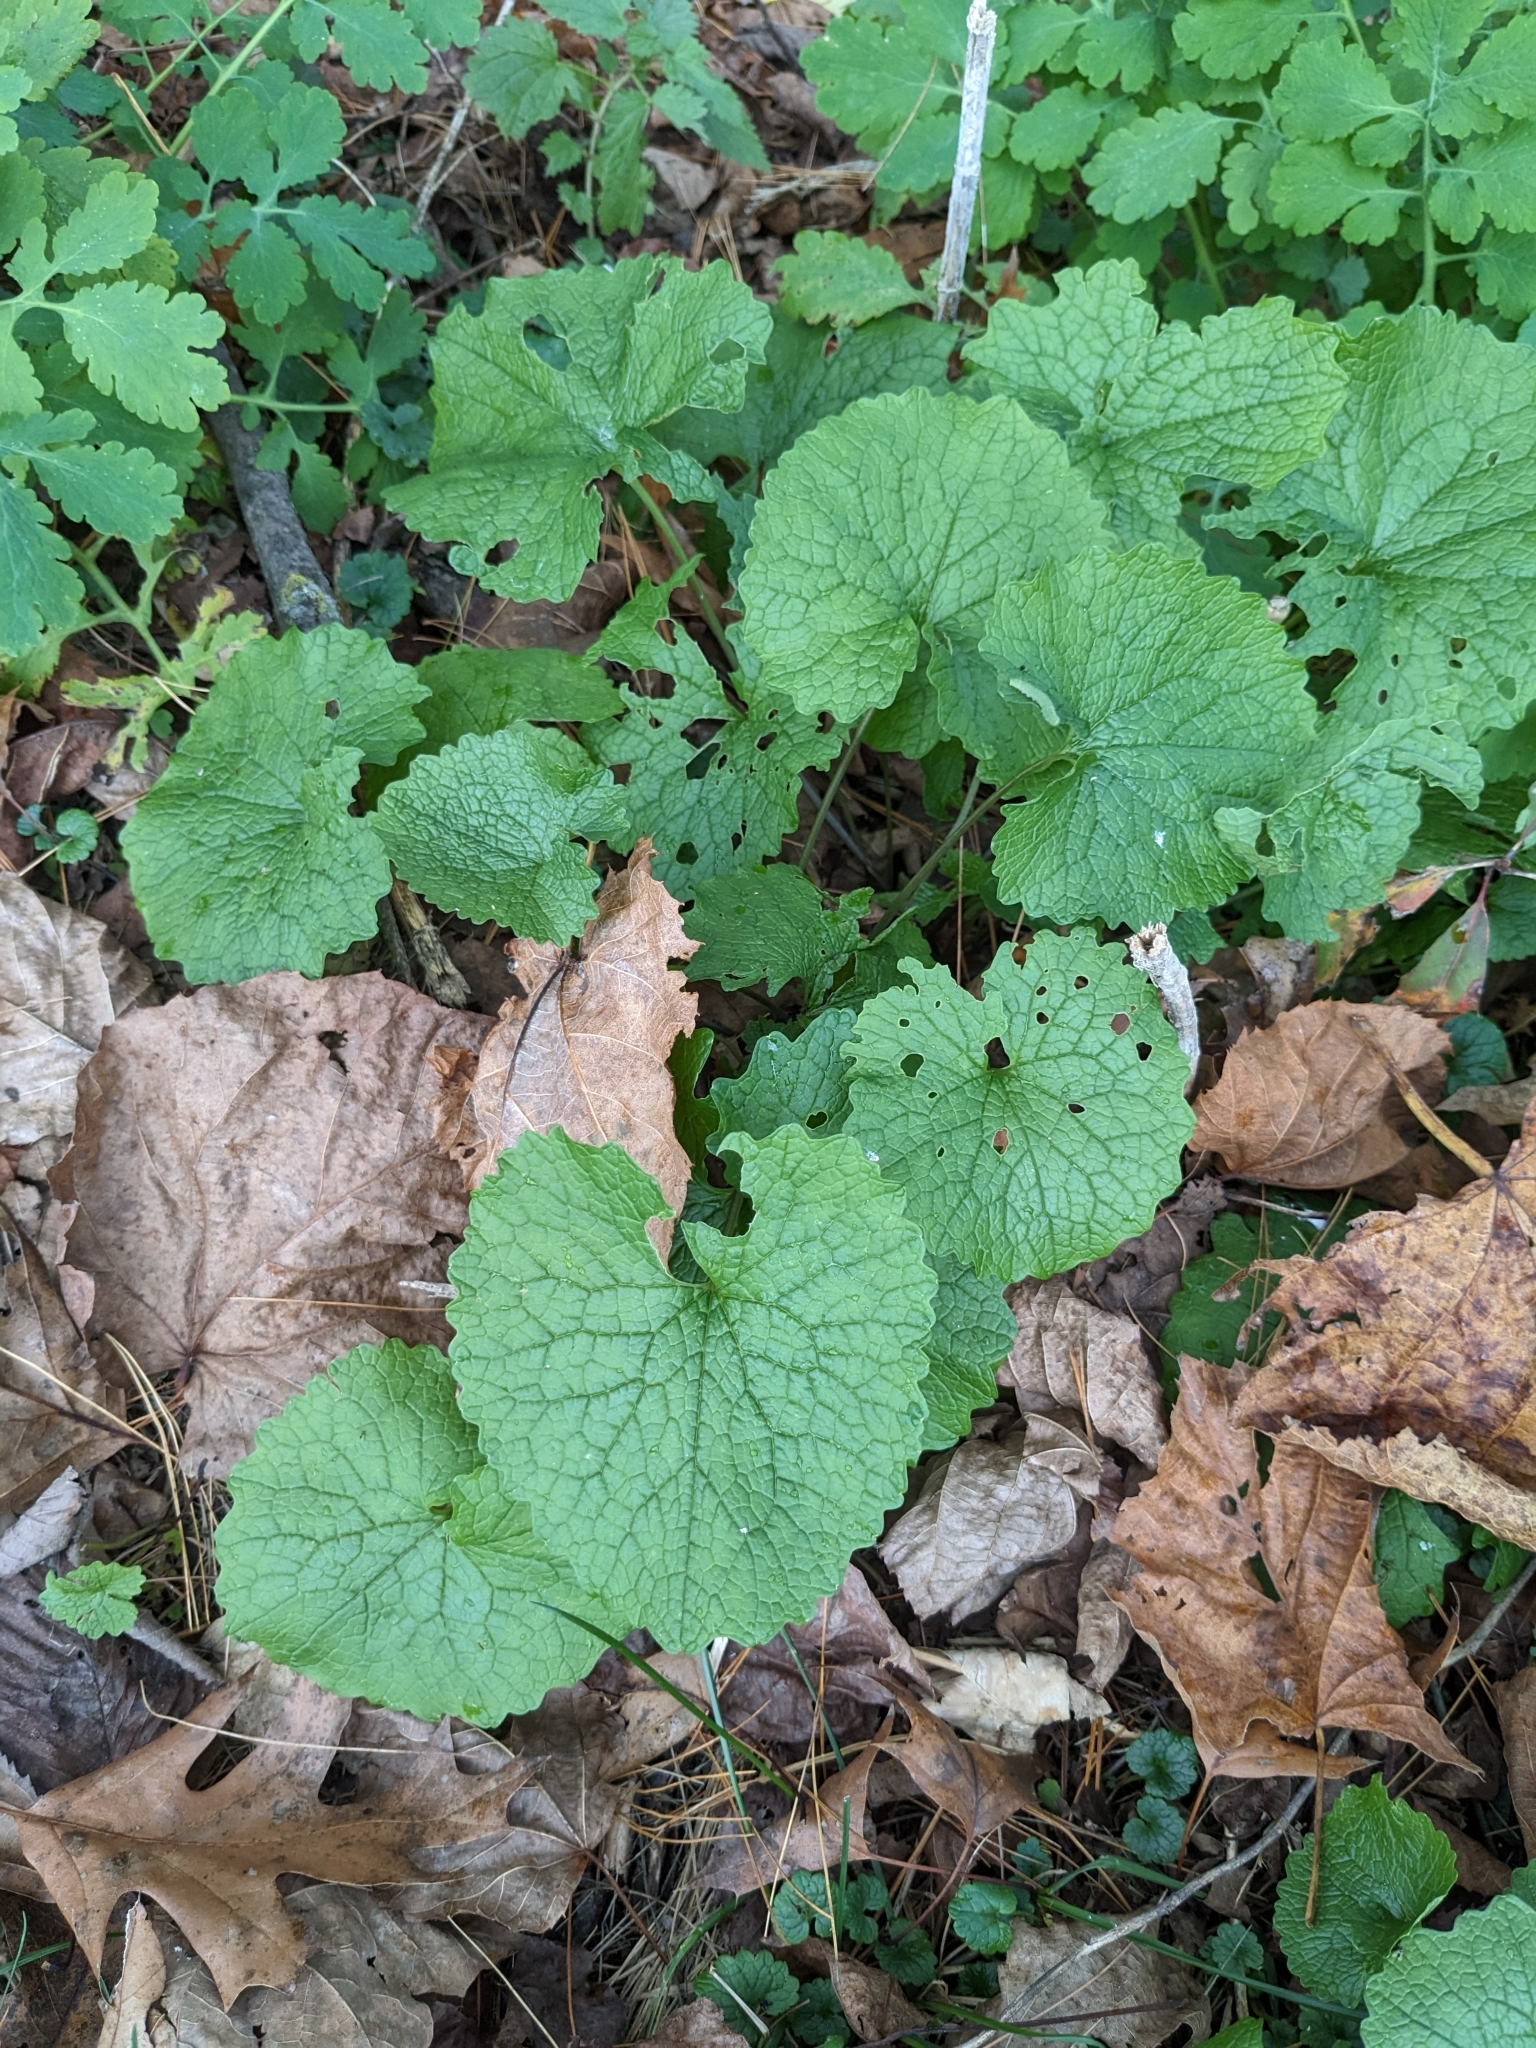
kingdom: Plantae
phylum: Tracheophyta
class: Magnoliopsida
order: Brassicales
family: Brassicaceae
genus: Alliaria
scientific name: Alliaria petiolata
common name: Garlic mustard
